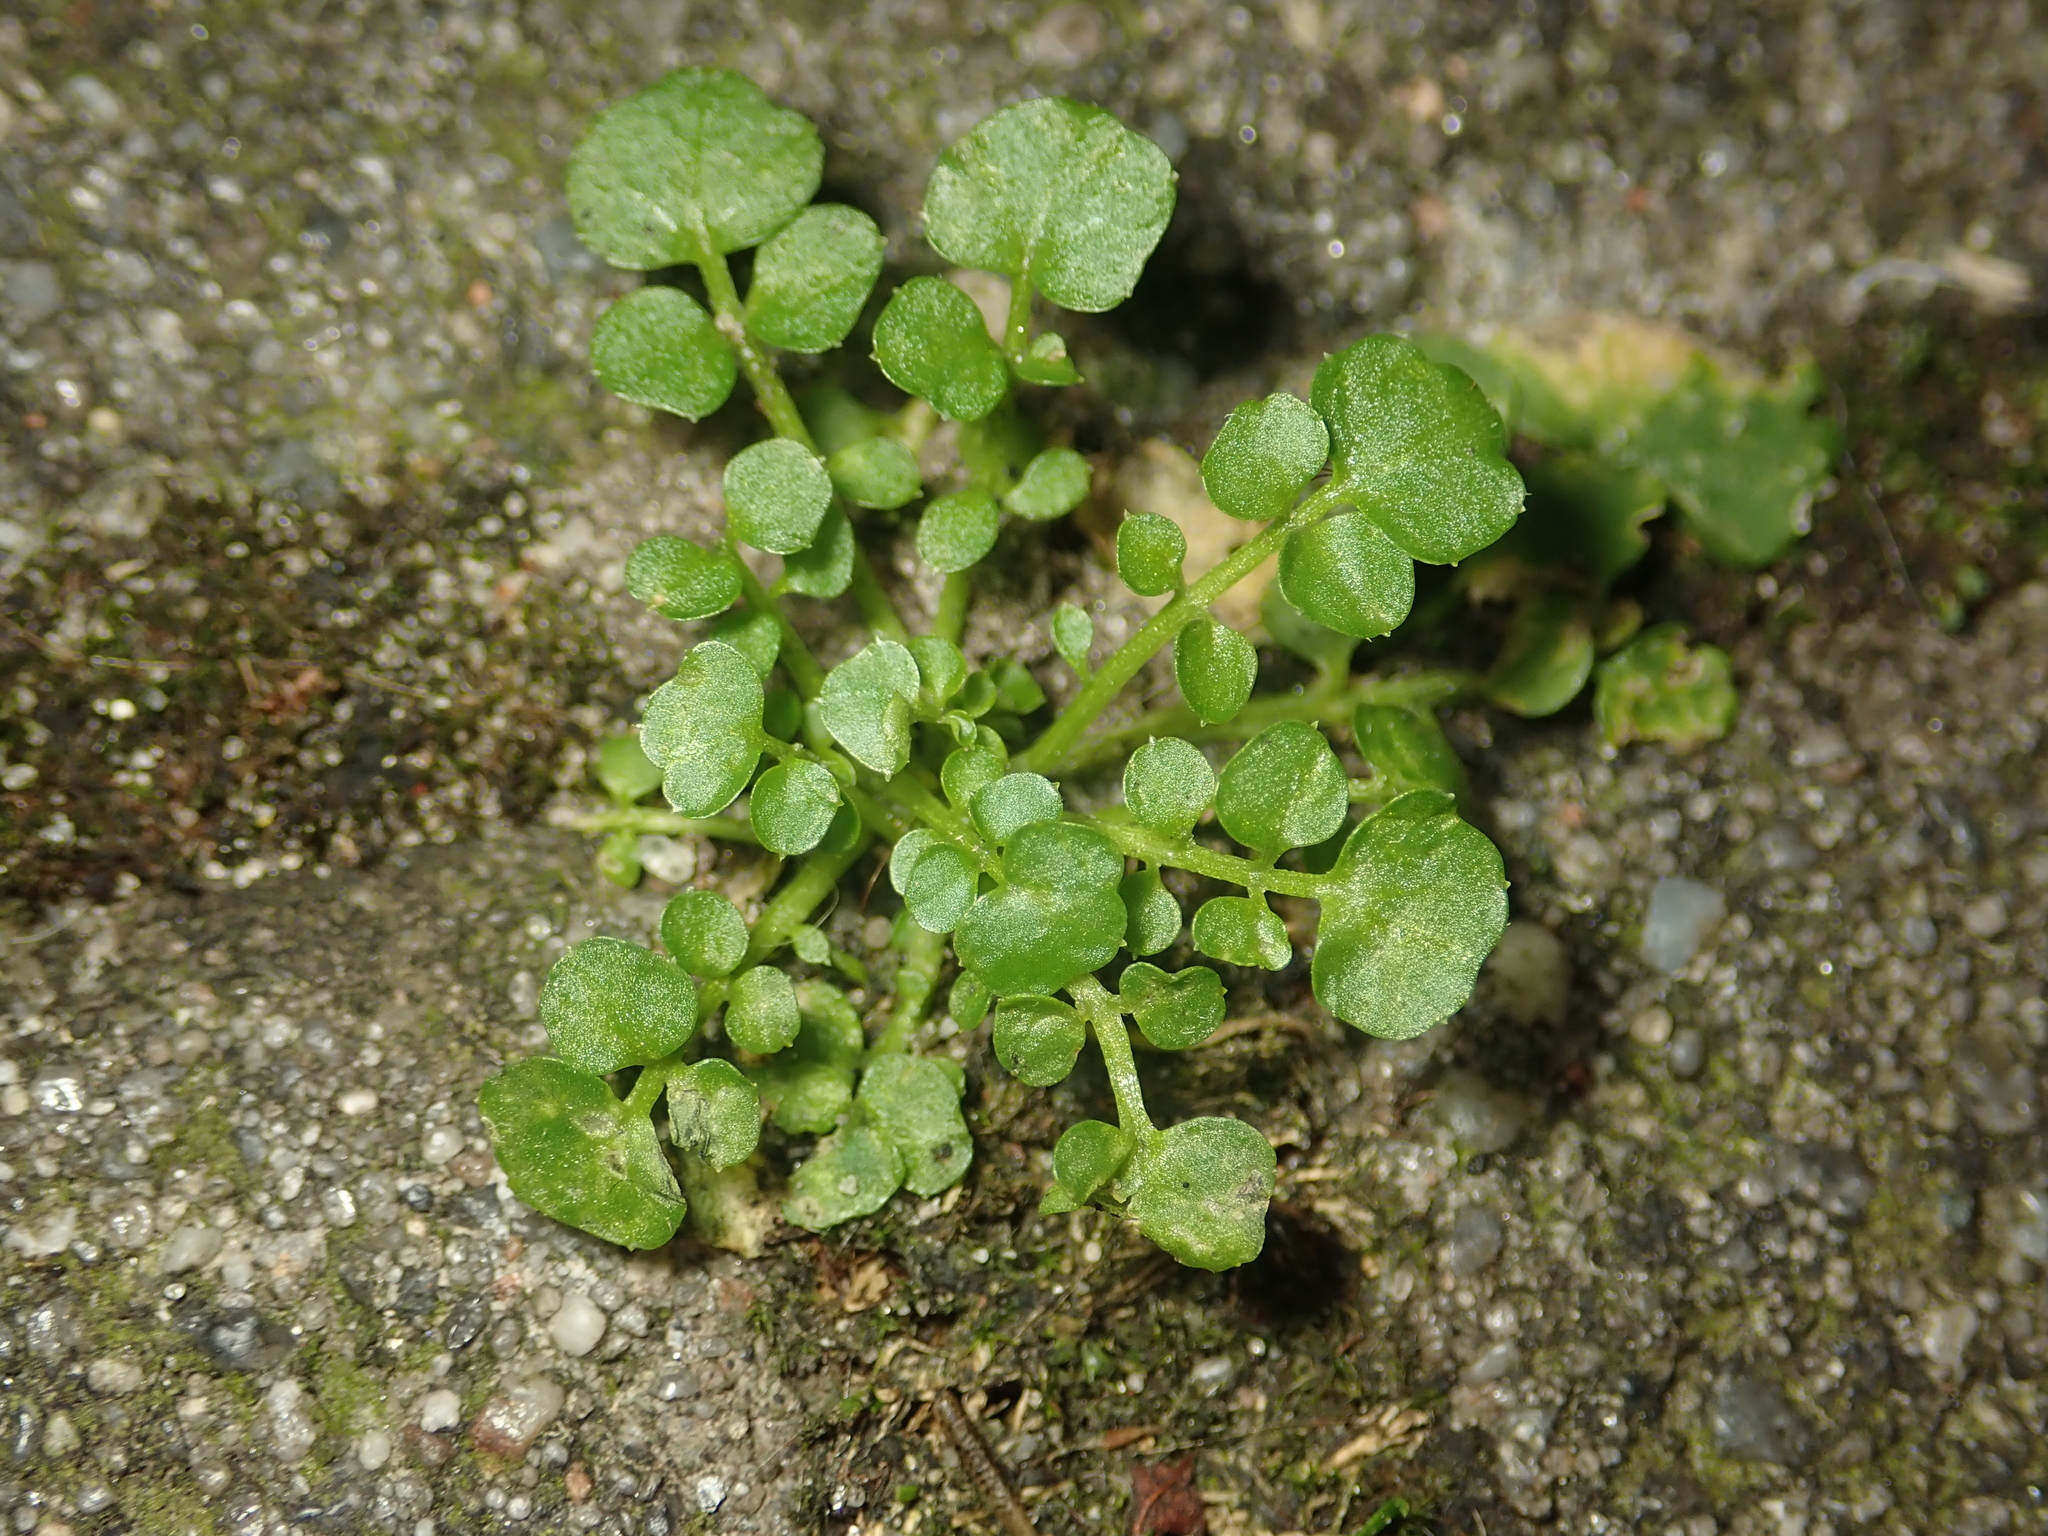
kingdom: Plantae
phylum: Tracheophyta
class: Magnoliopsida
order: Brassicales
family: Brassicaceae
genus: Cardamine
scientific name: Cardamine hirsuta
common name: Hairy bittercress
